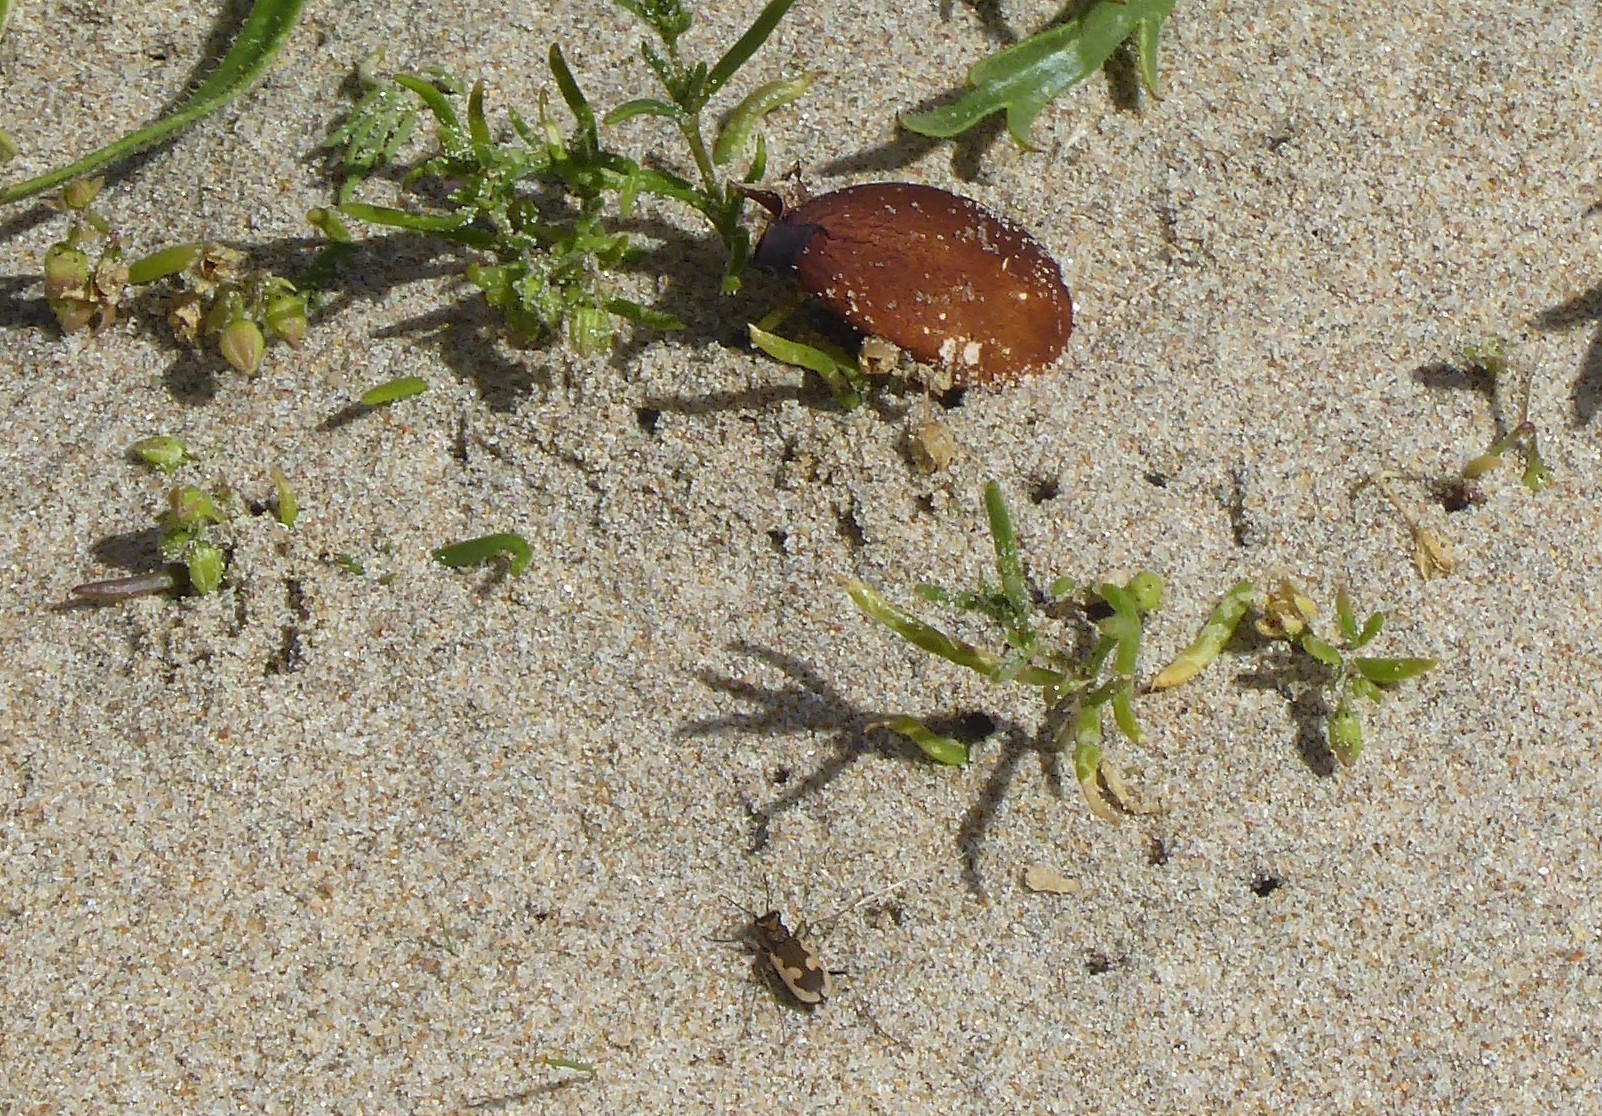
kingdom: Animalia
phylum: Arthropoda
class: Insecta
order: Coleoptera
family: Carabidae
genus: Neocicindela
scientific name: Neocicindela latecincta
